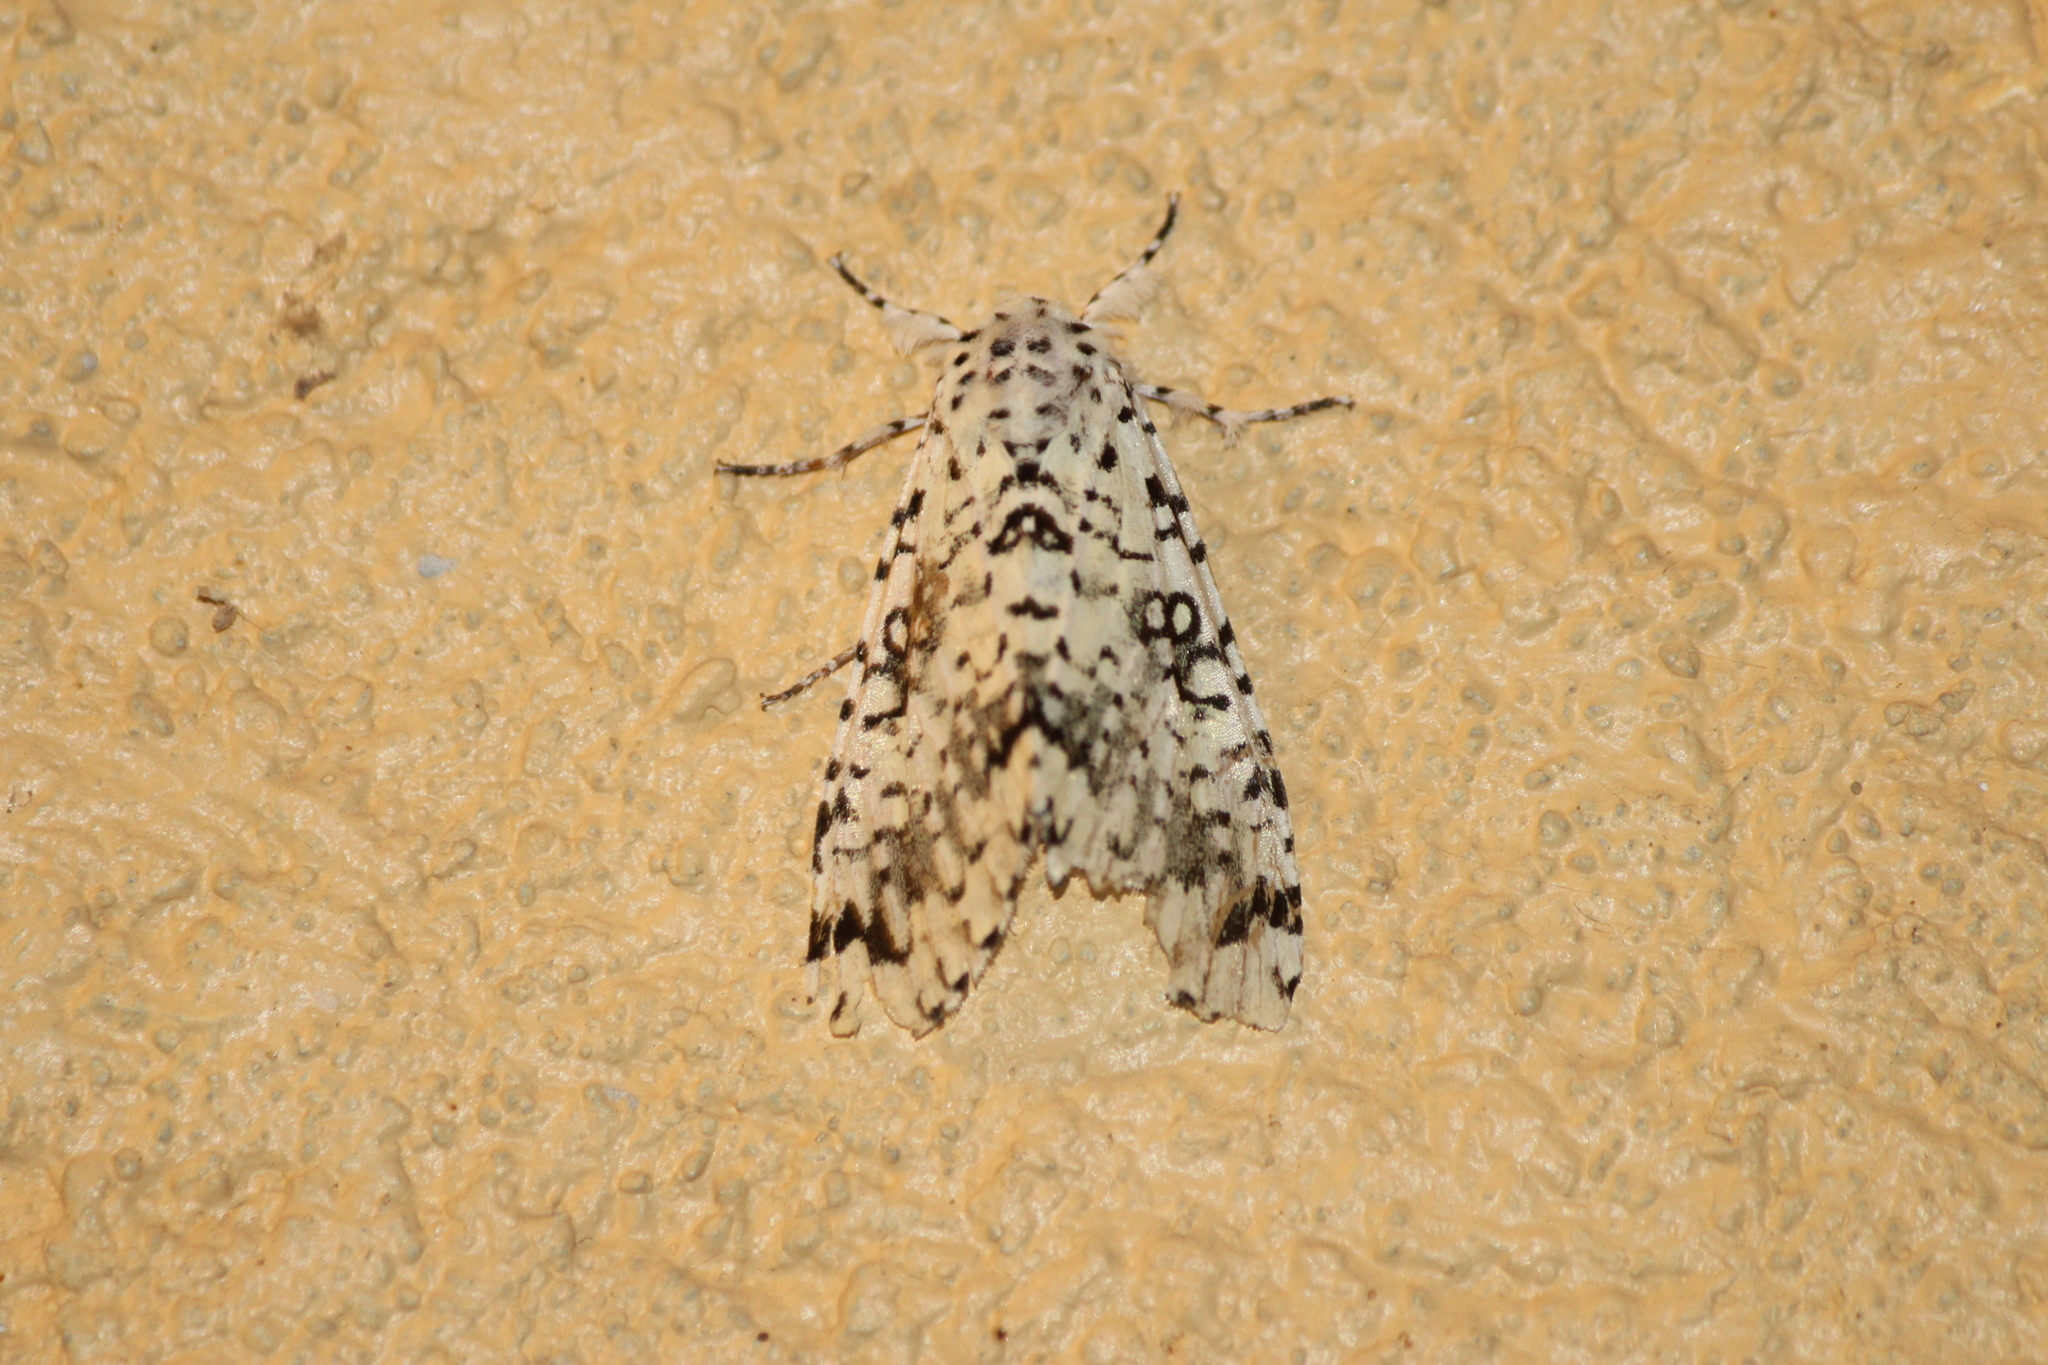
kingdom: Animalia
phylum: Arthropoda
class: Insecta
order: Lepidoptera
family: Noctuidae
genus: Lichnoptera
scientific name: Lichnoptera decora
